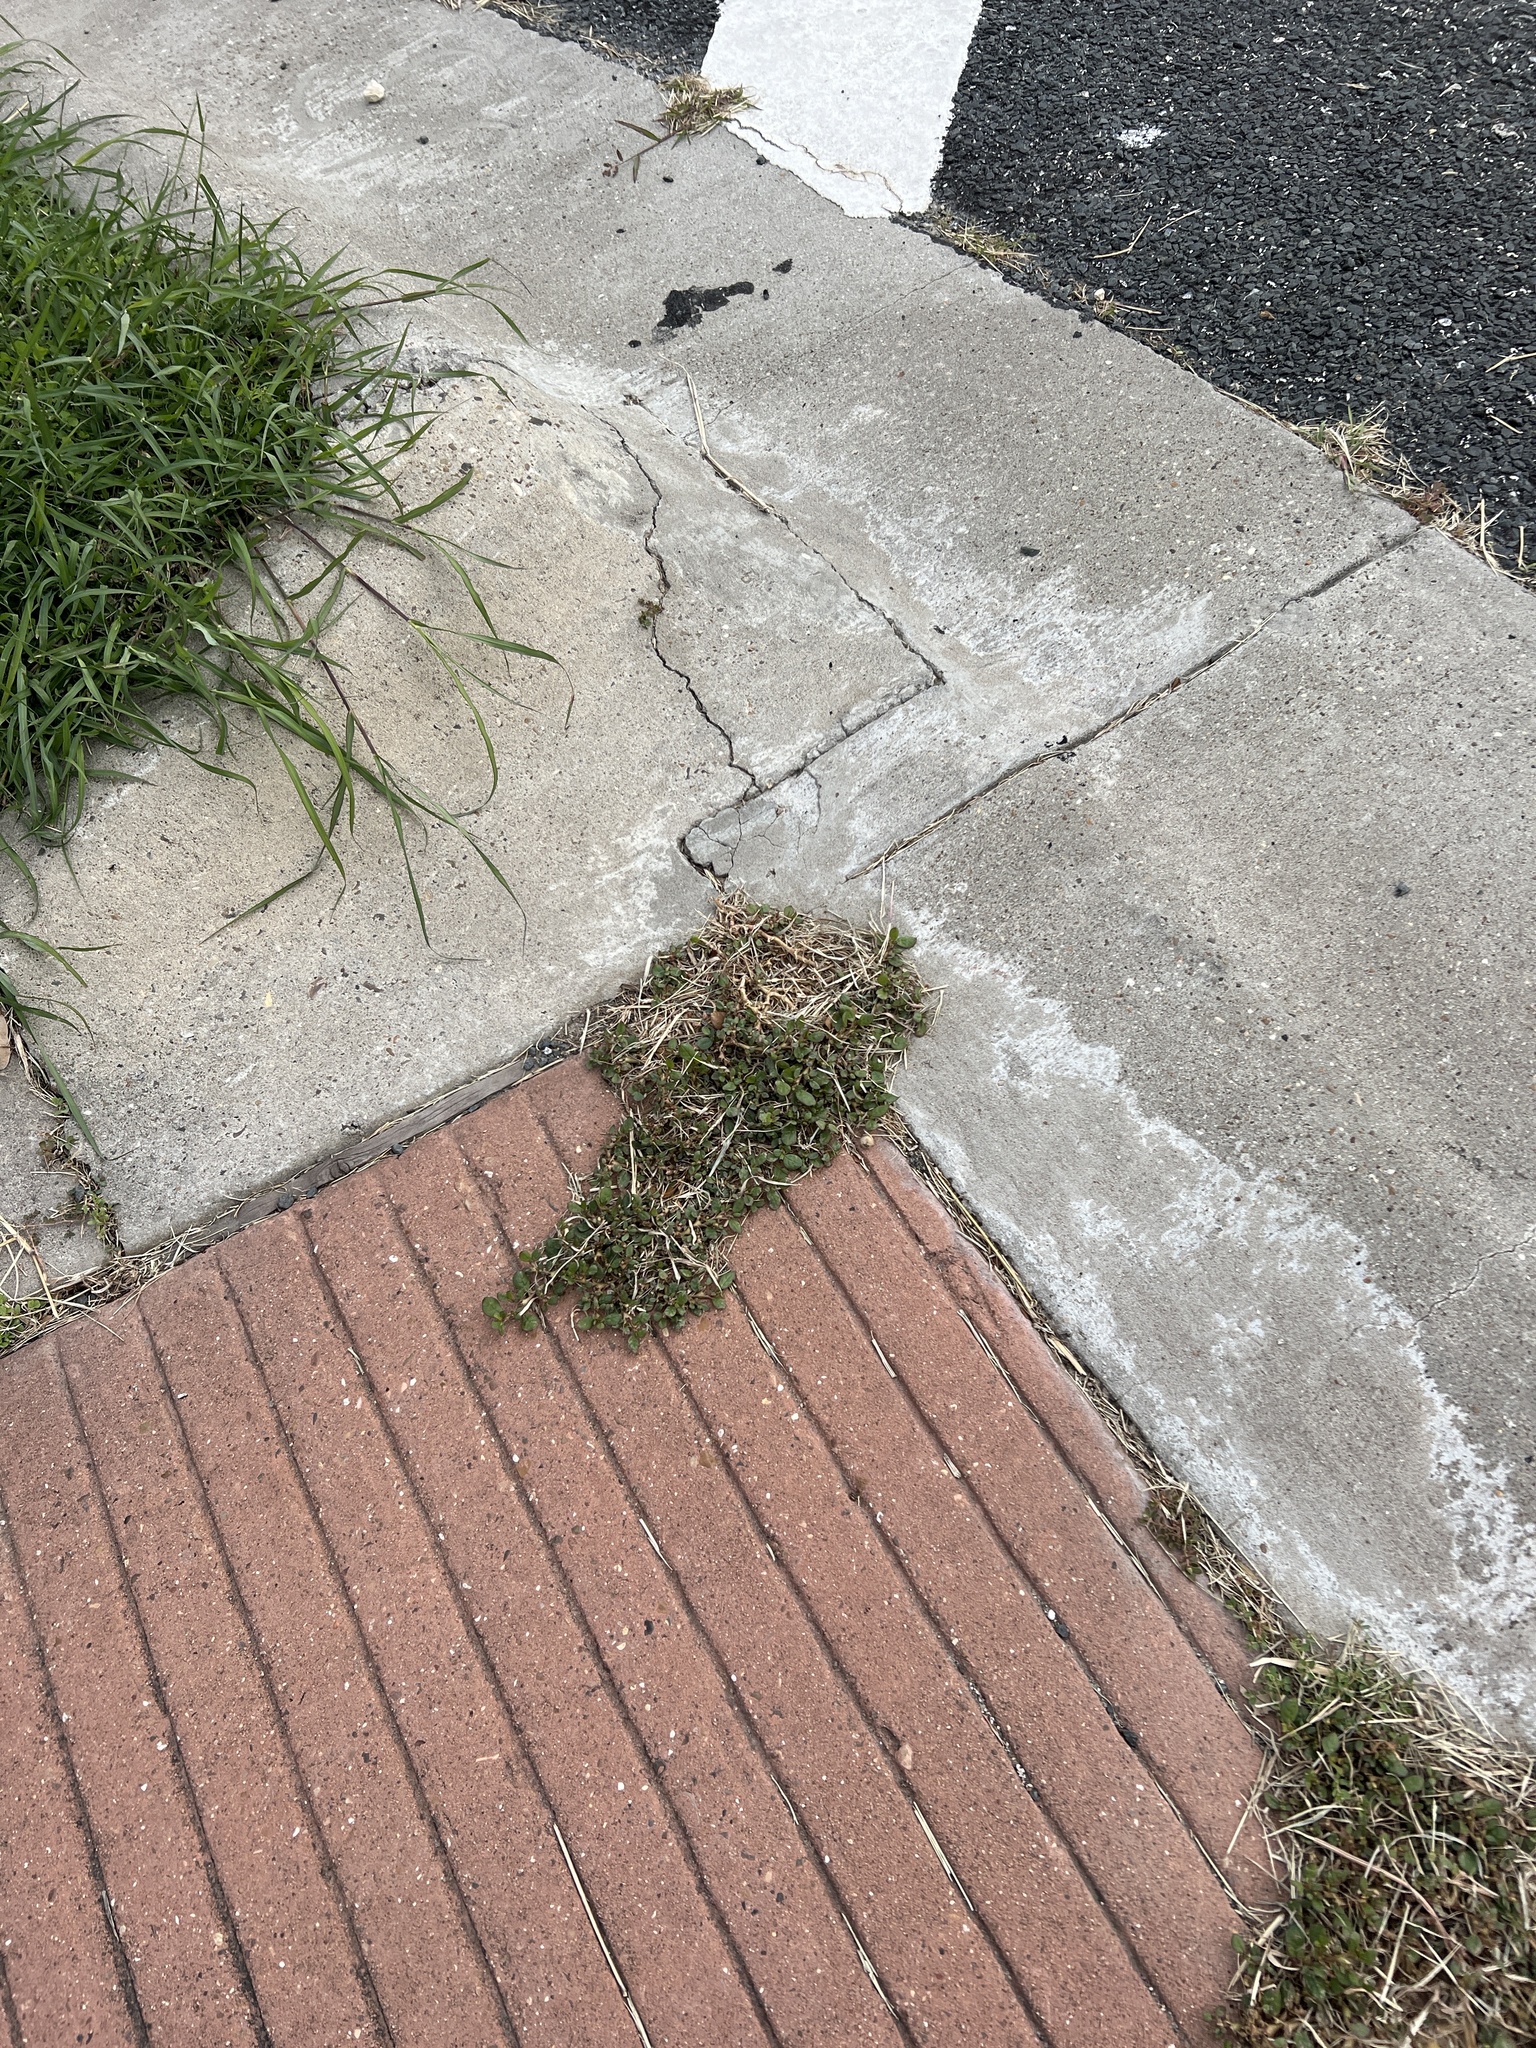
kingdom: Plantae
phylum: Tracheophyta
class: Magnoliopsida
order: Caryophyllales
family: Aizoaceae
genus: Trianthema
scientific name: Trianthema portulacastrum
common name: Desert horsepurslane
